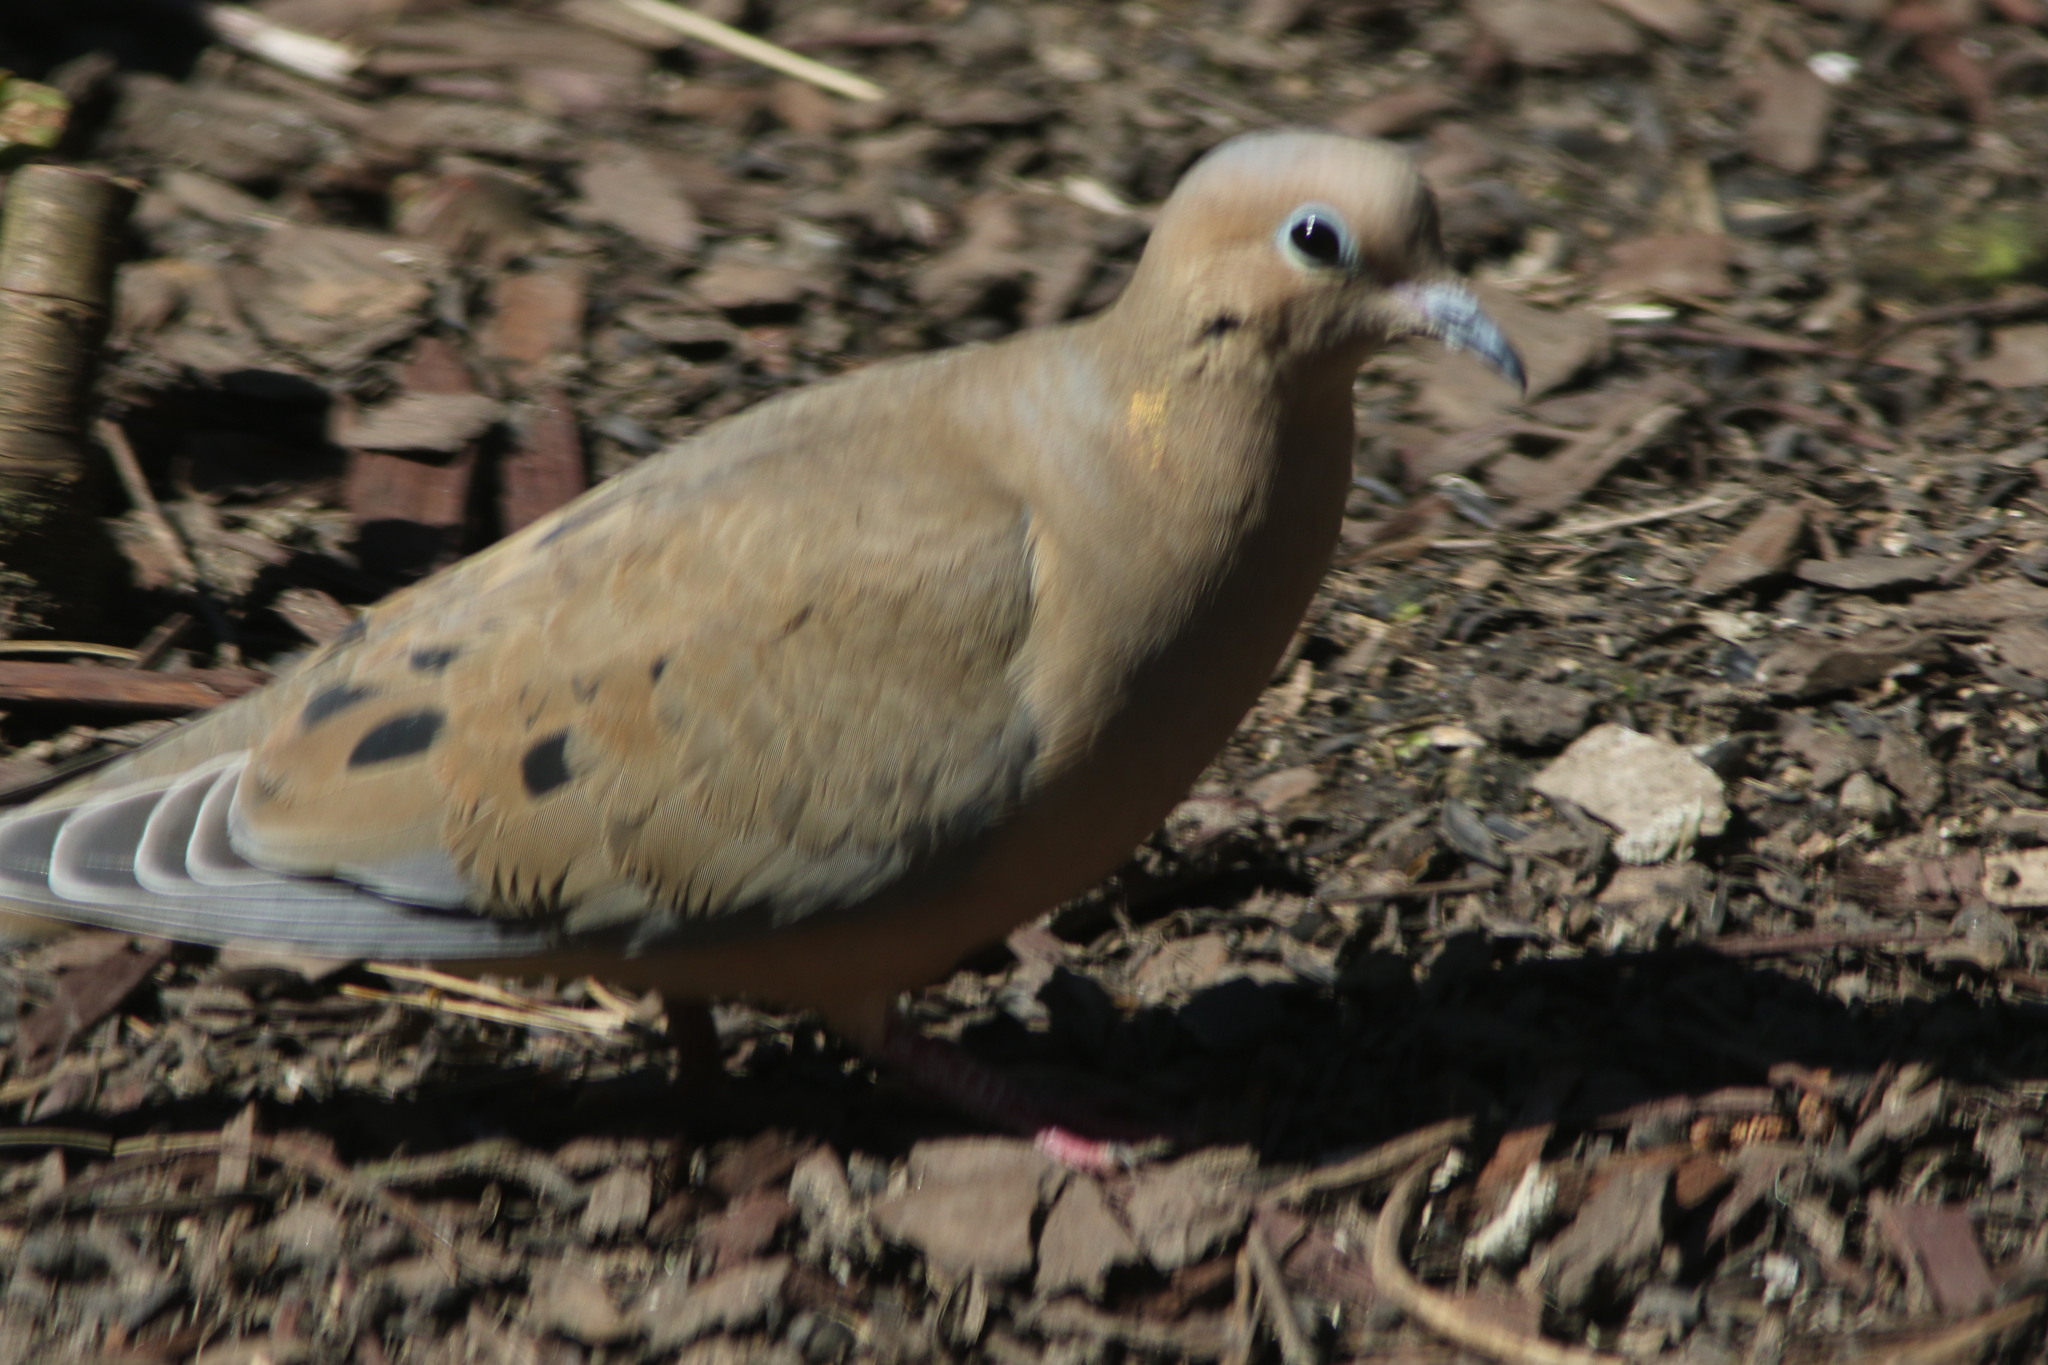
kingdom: Animalia
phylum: Chordata
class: Aves
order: Columbiformes
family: Columbidae
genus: Zenaida
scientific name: Zenaida macroura
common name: Mourning dove
